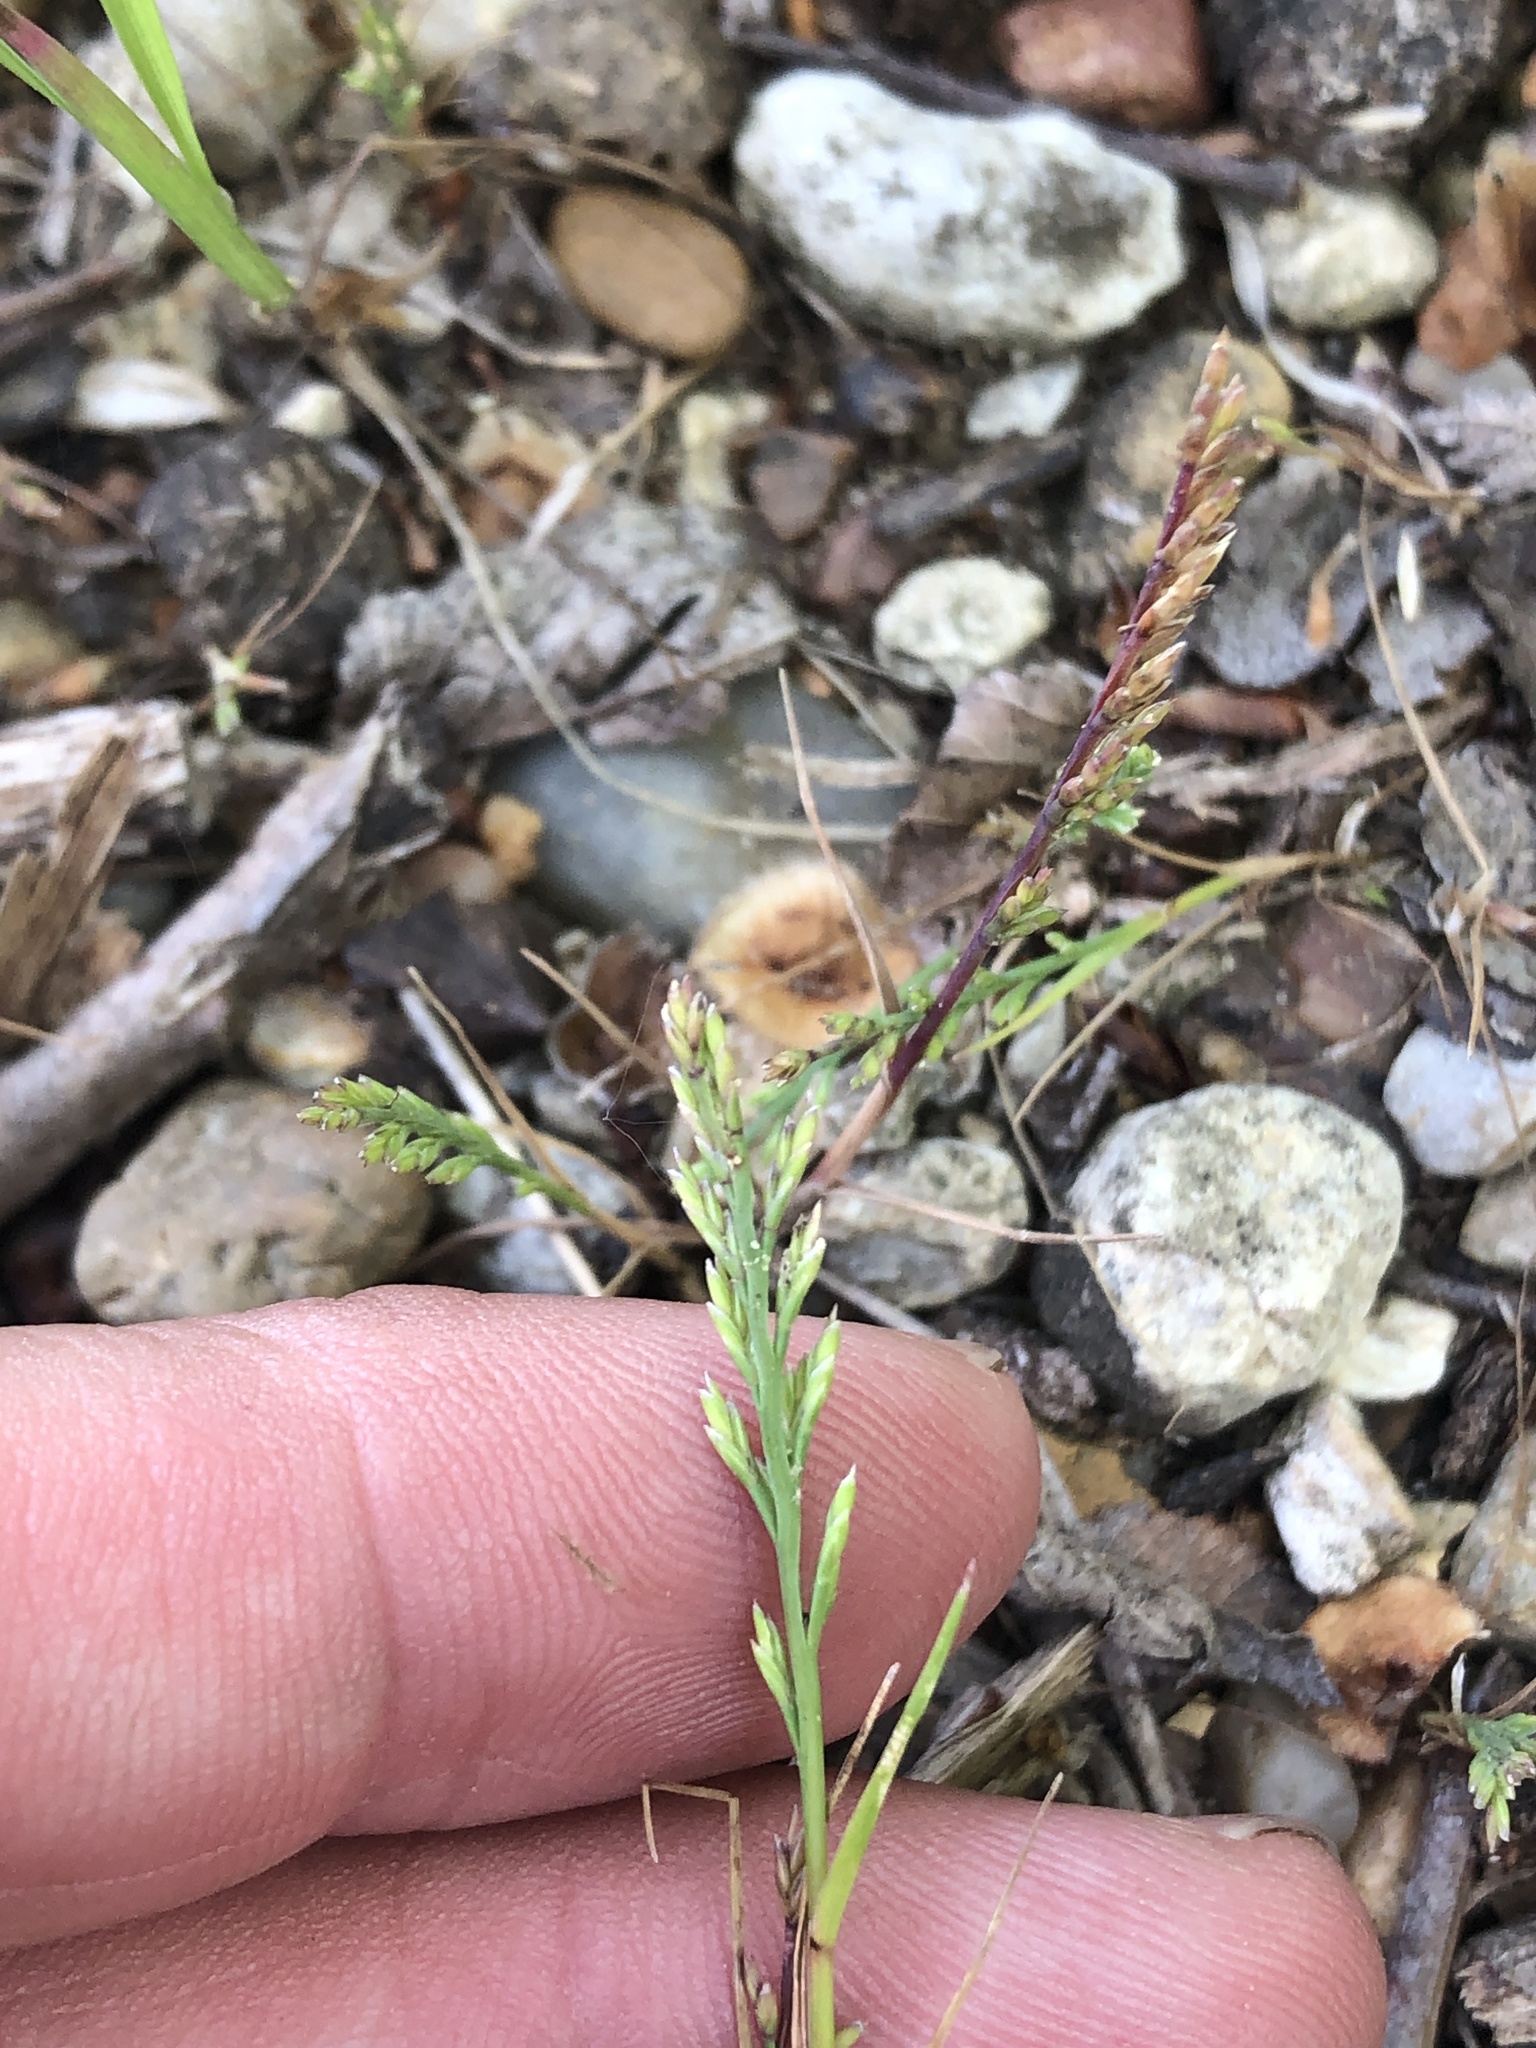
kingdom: Plantae
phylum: Tracheophyta
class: Liliopsida
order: Poales
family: Poaceae
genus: Catapodium
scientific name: Catapodium rigidum
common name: Fern-grass
